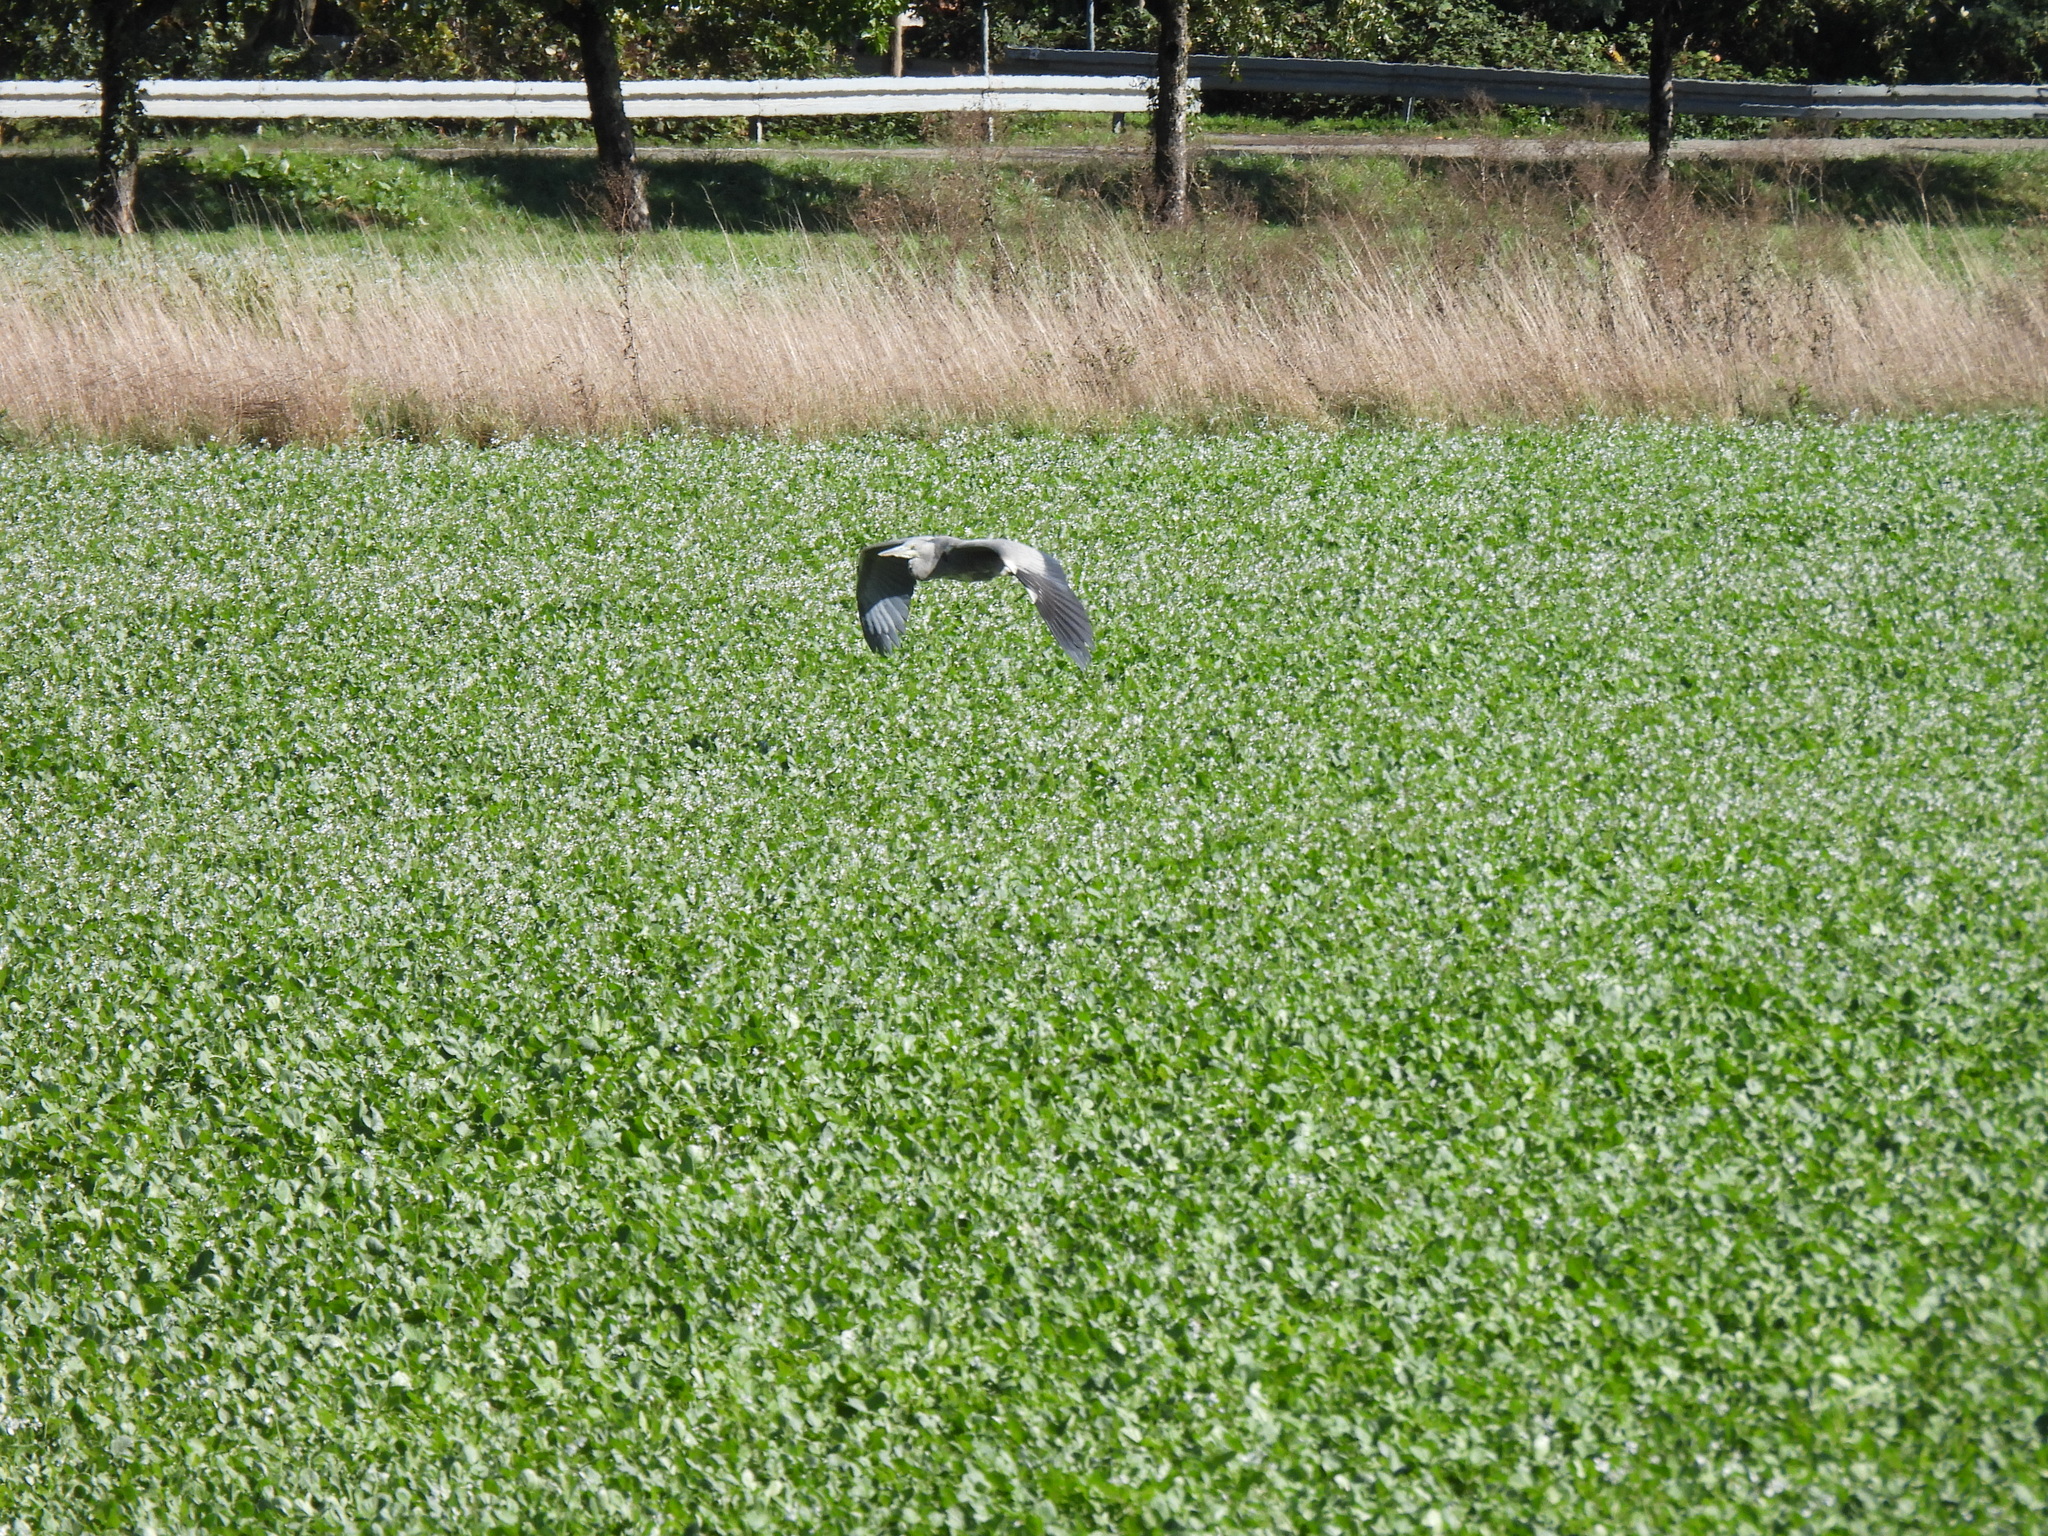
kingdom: Animalia
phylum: Chordata
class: Aves
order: Pelecaniformes
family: Ardeidae
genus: Ardea
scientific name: Ardea cinerea
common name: Grey heron
